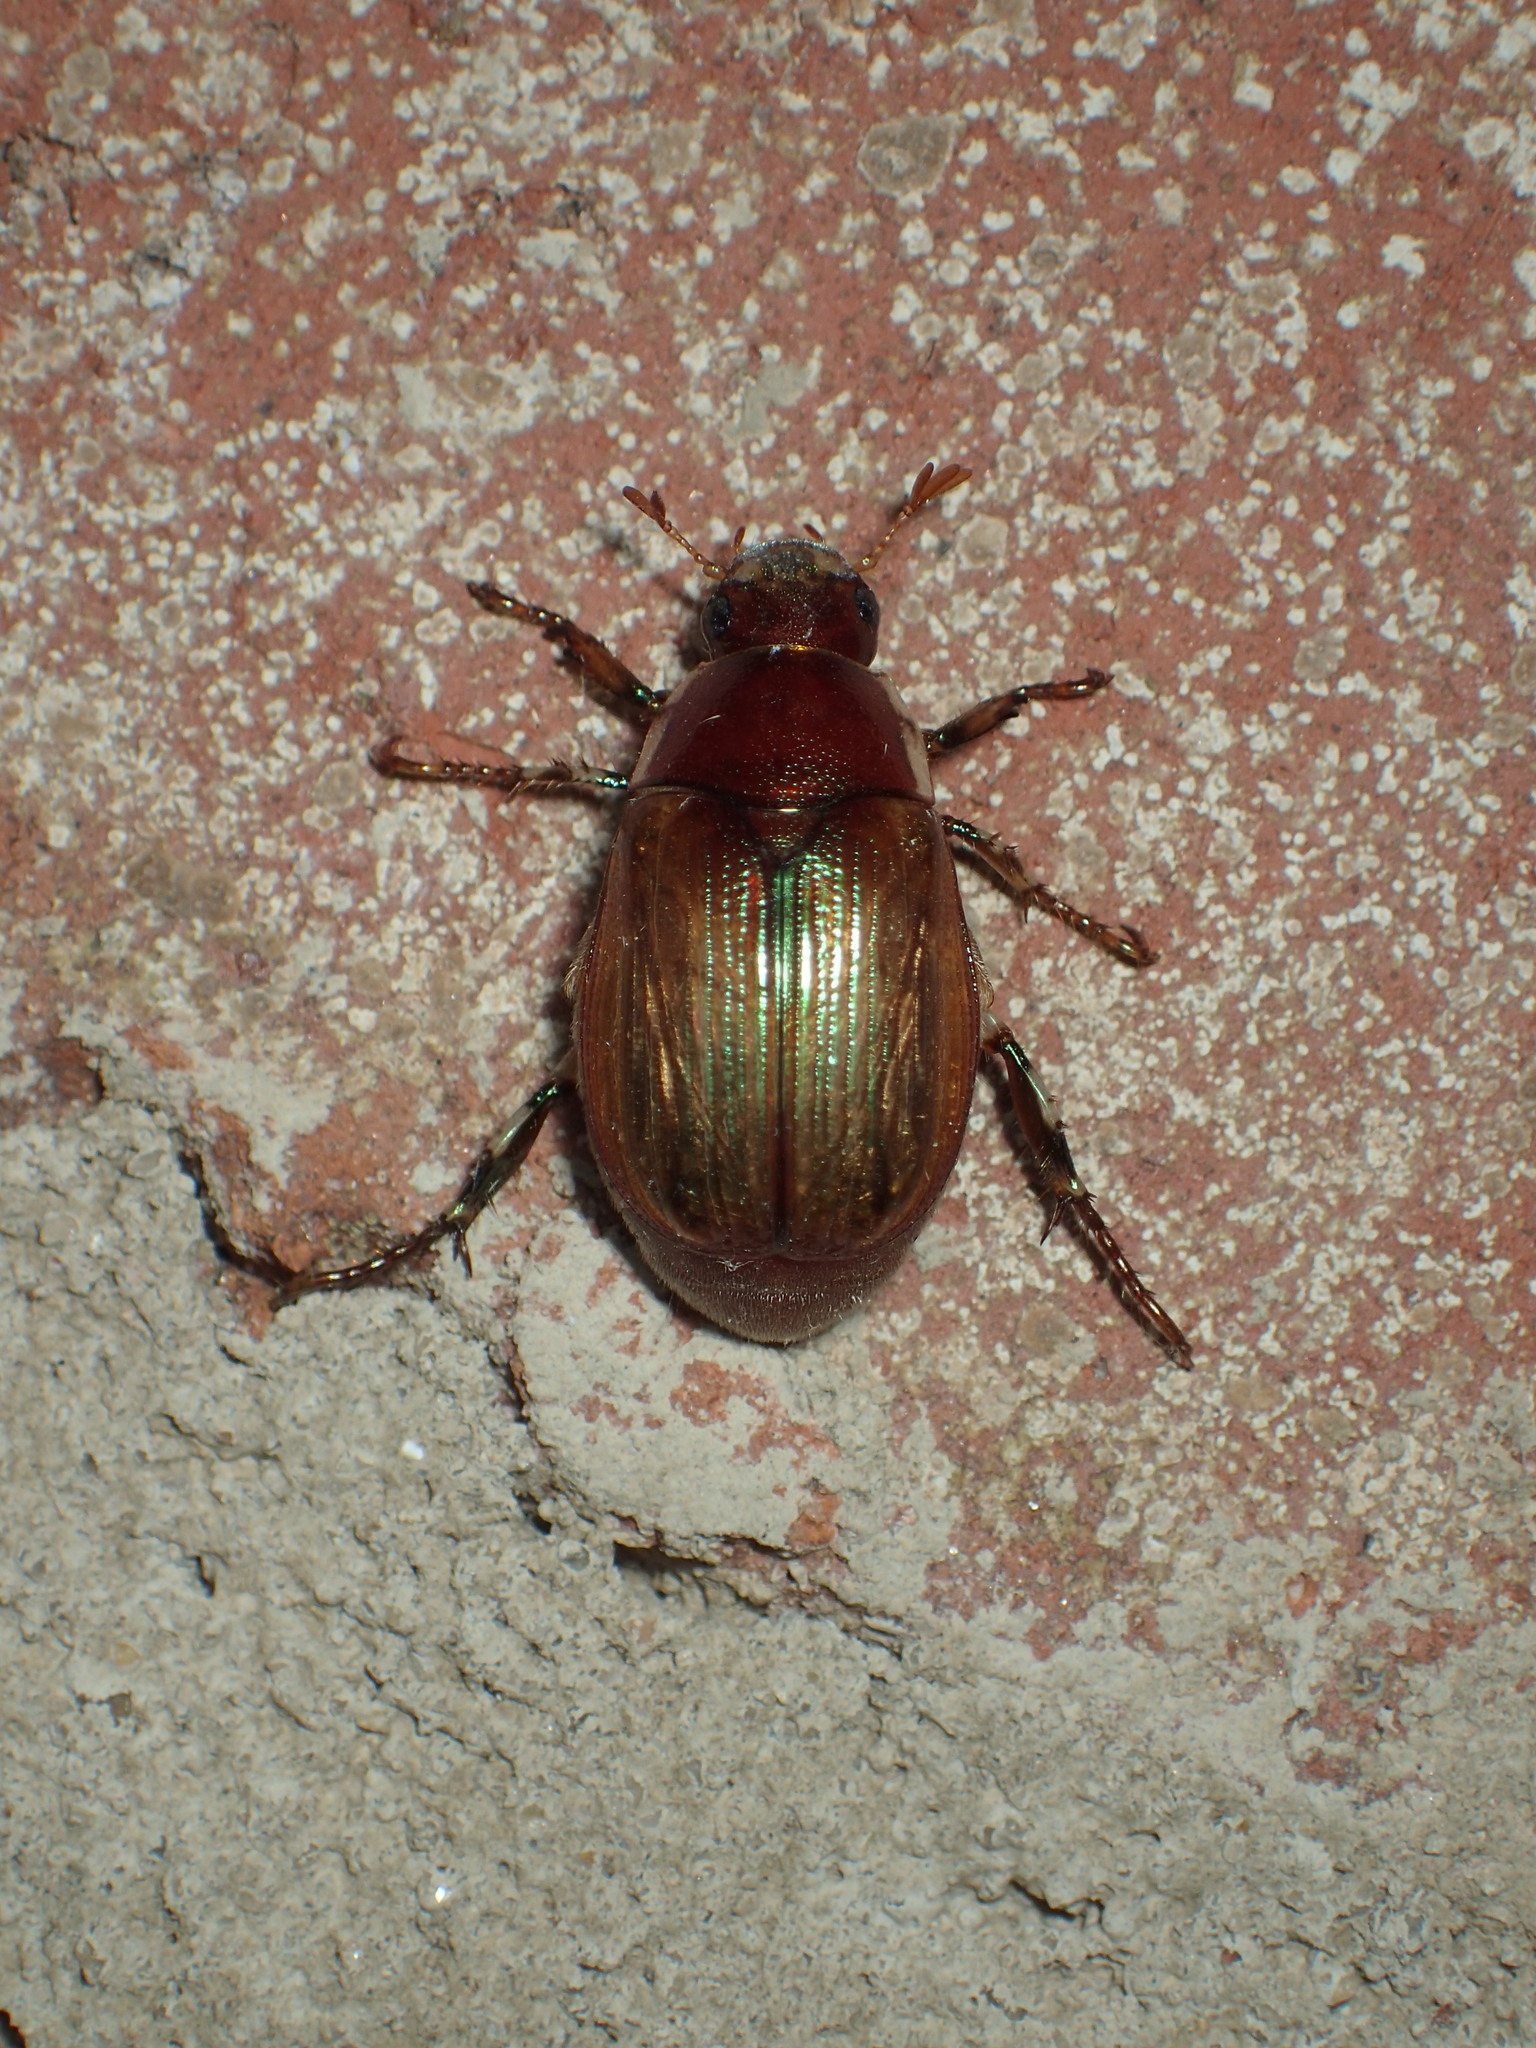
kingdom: Animalia
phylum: Arthropoda
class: Insecta
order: Coleoptera
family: Scarabaeidae
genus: Callistethus
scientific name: Callistethus marginatus
